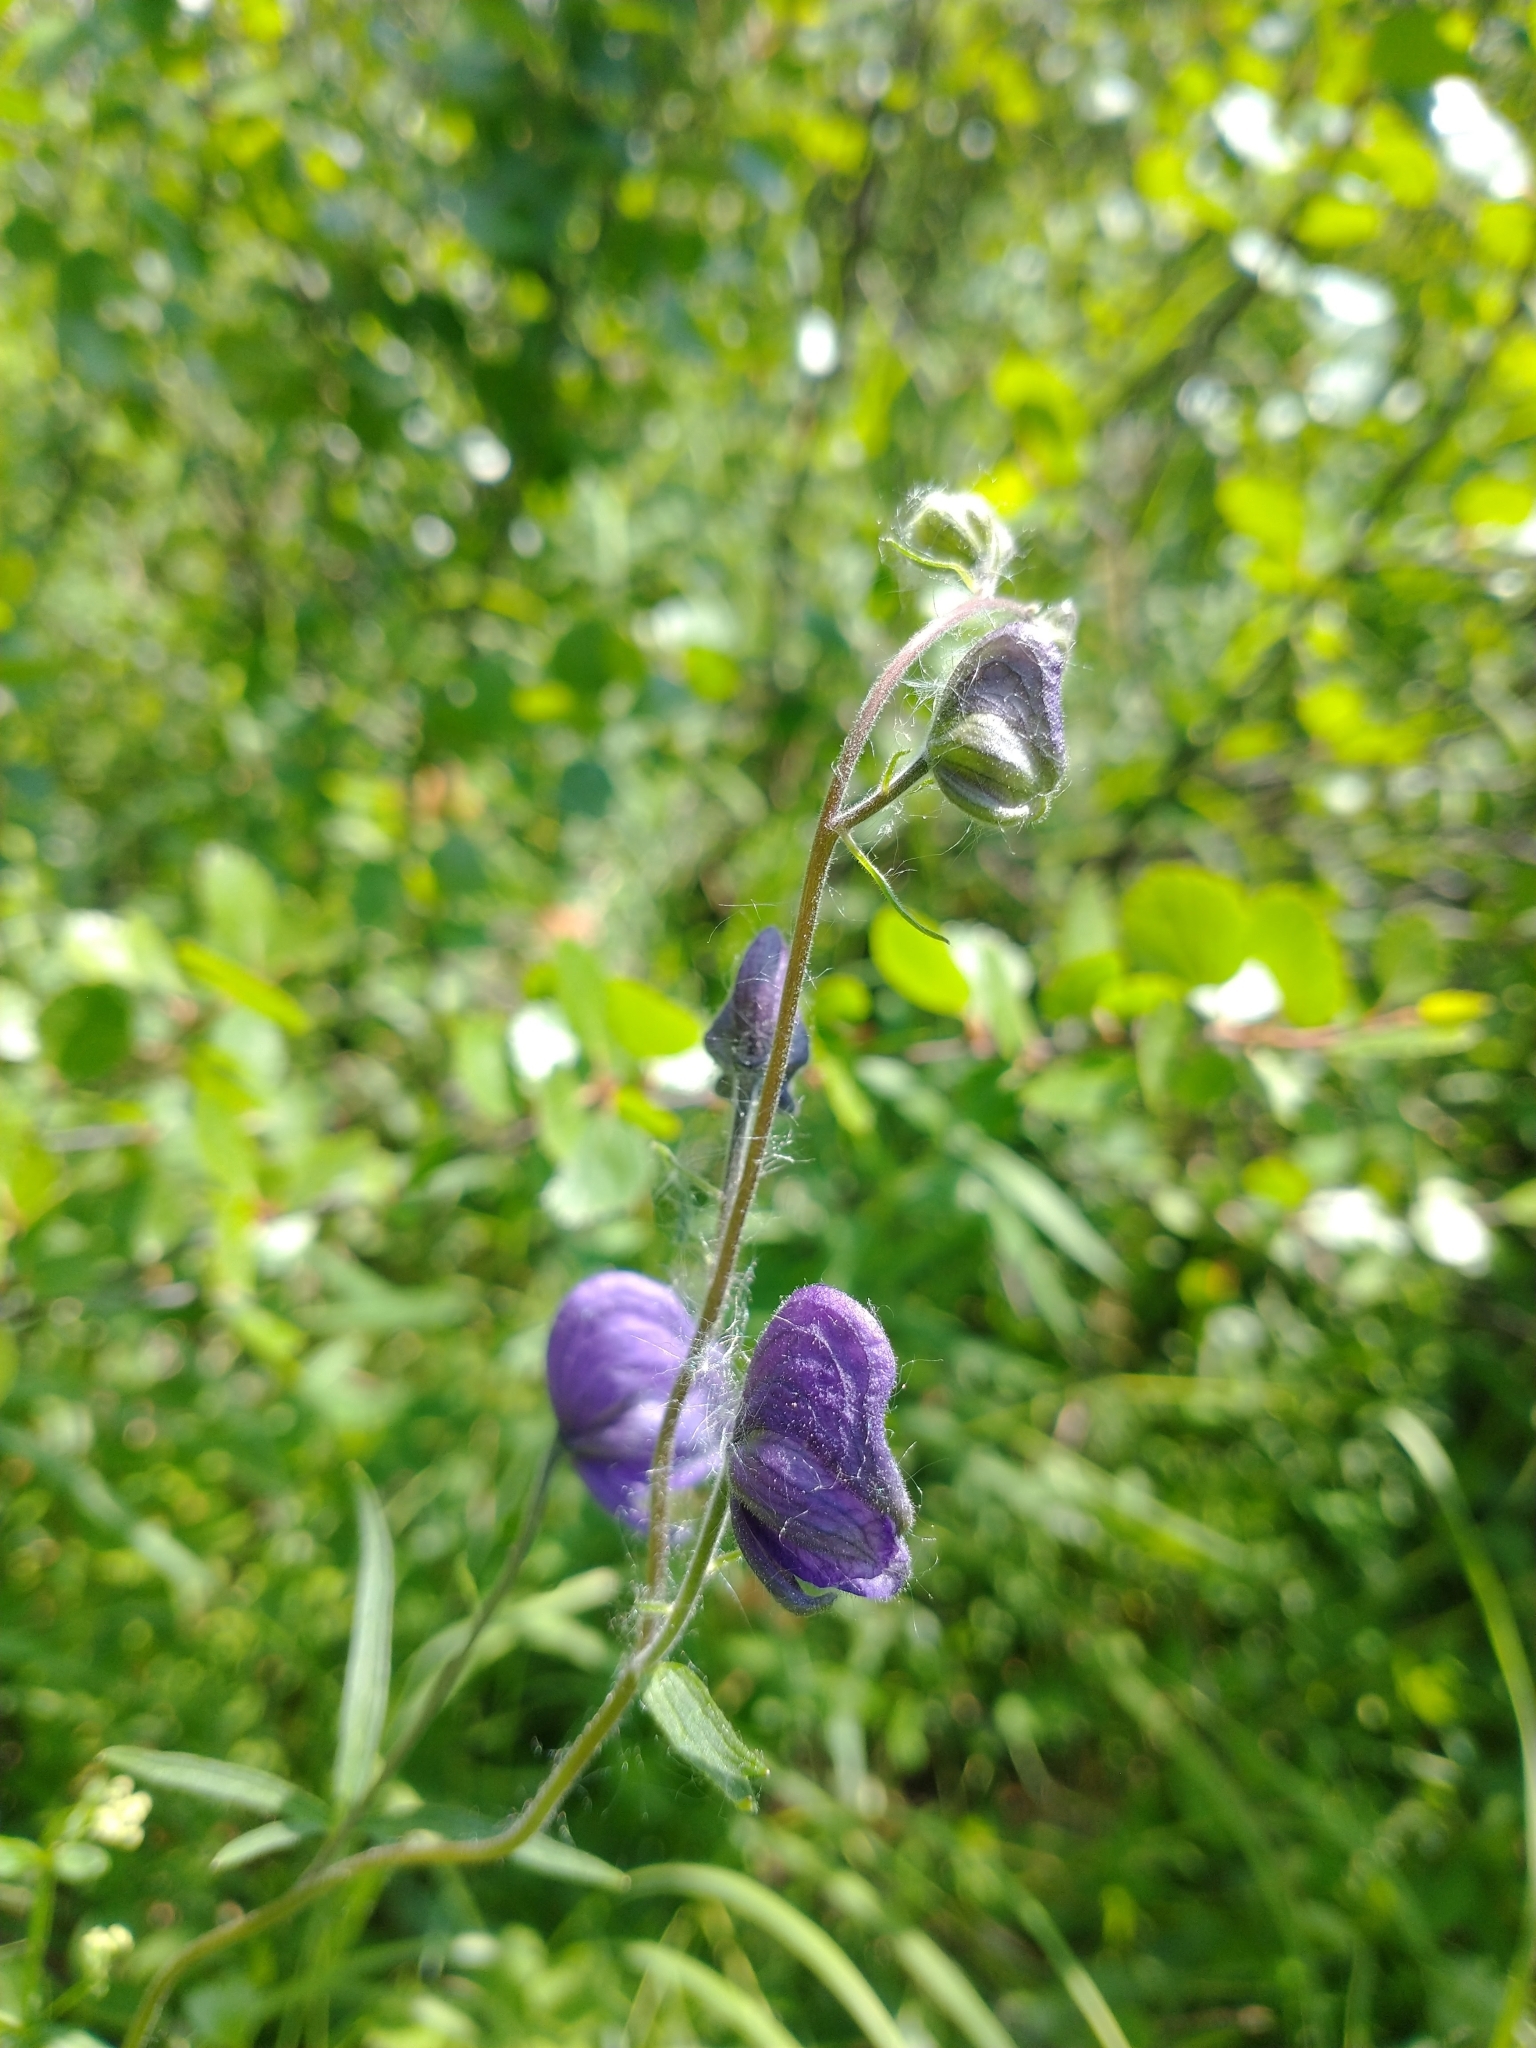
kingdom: Plantae
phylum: Tracheophyta
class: Magnoliopsida
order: Ranunculales
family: Ranunculaceae
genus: Aconitum
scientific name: Aconitum delphiniifolium
